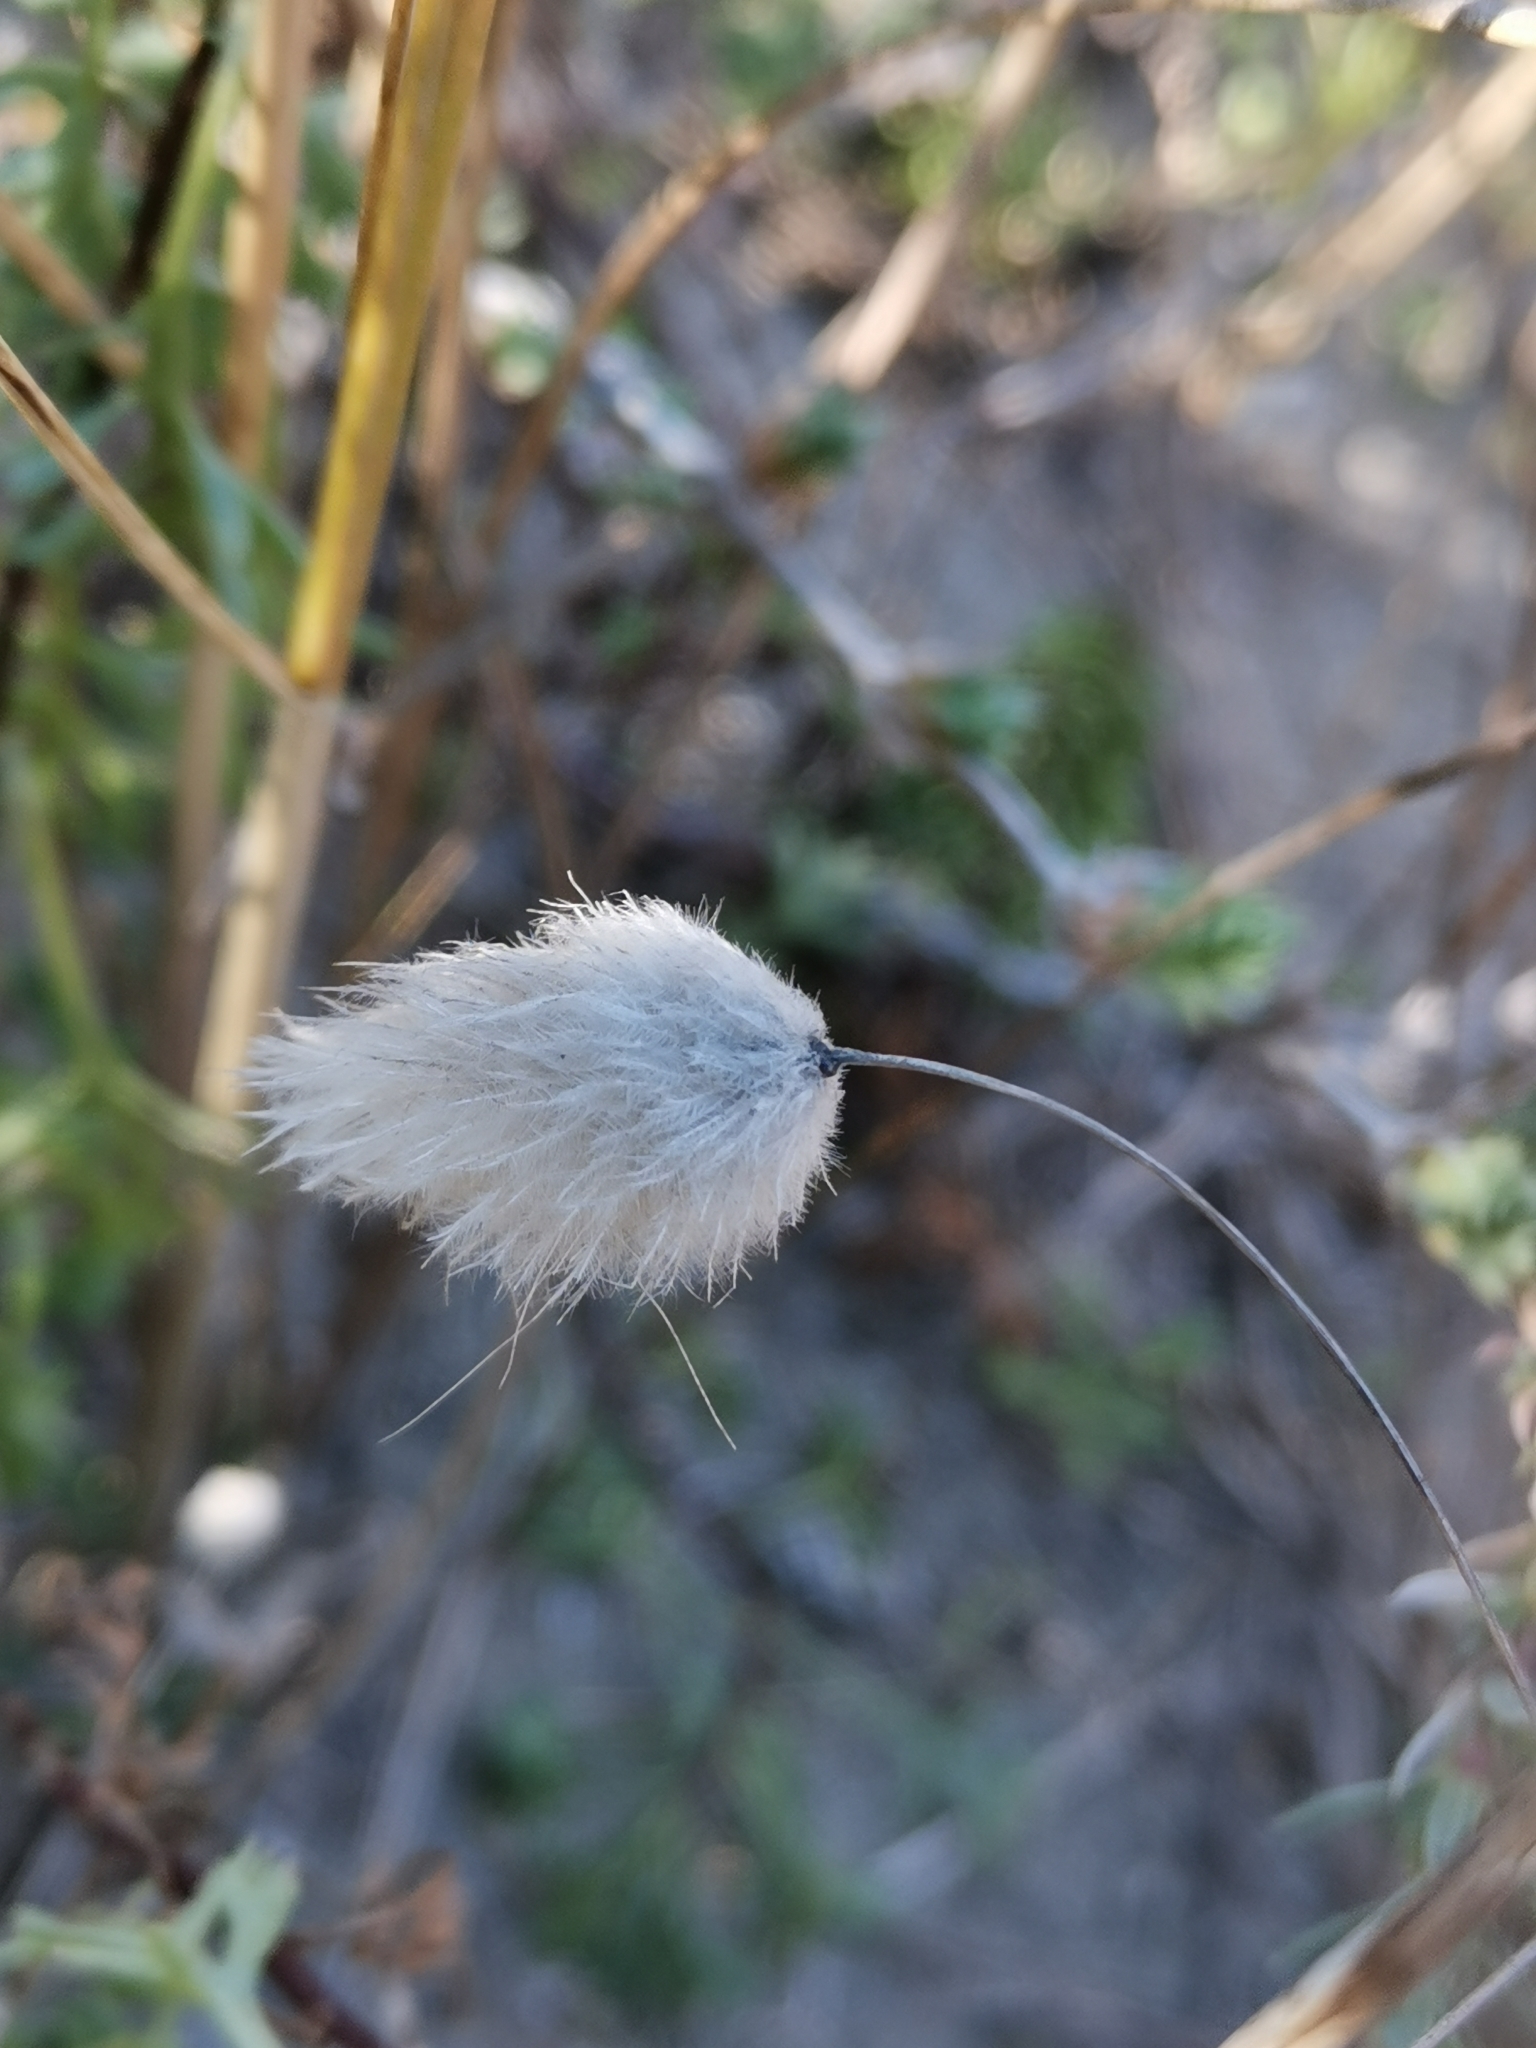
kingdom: Plantae
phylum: Tracheophyta
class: Liliopsida
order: Poales
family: Poaceae
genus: Lagurus
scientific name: Lagurus ovatus
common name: Hare's-tail
